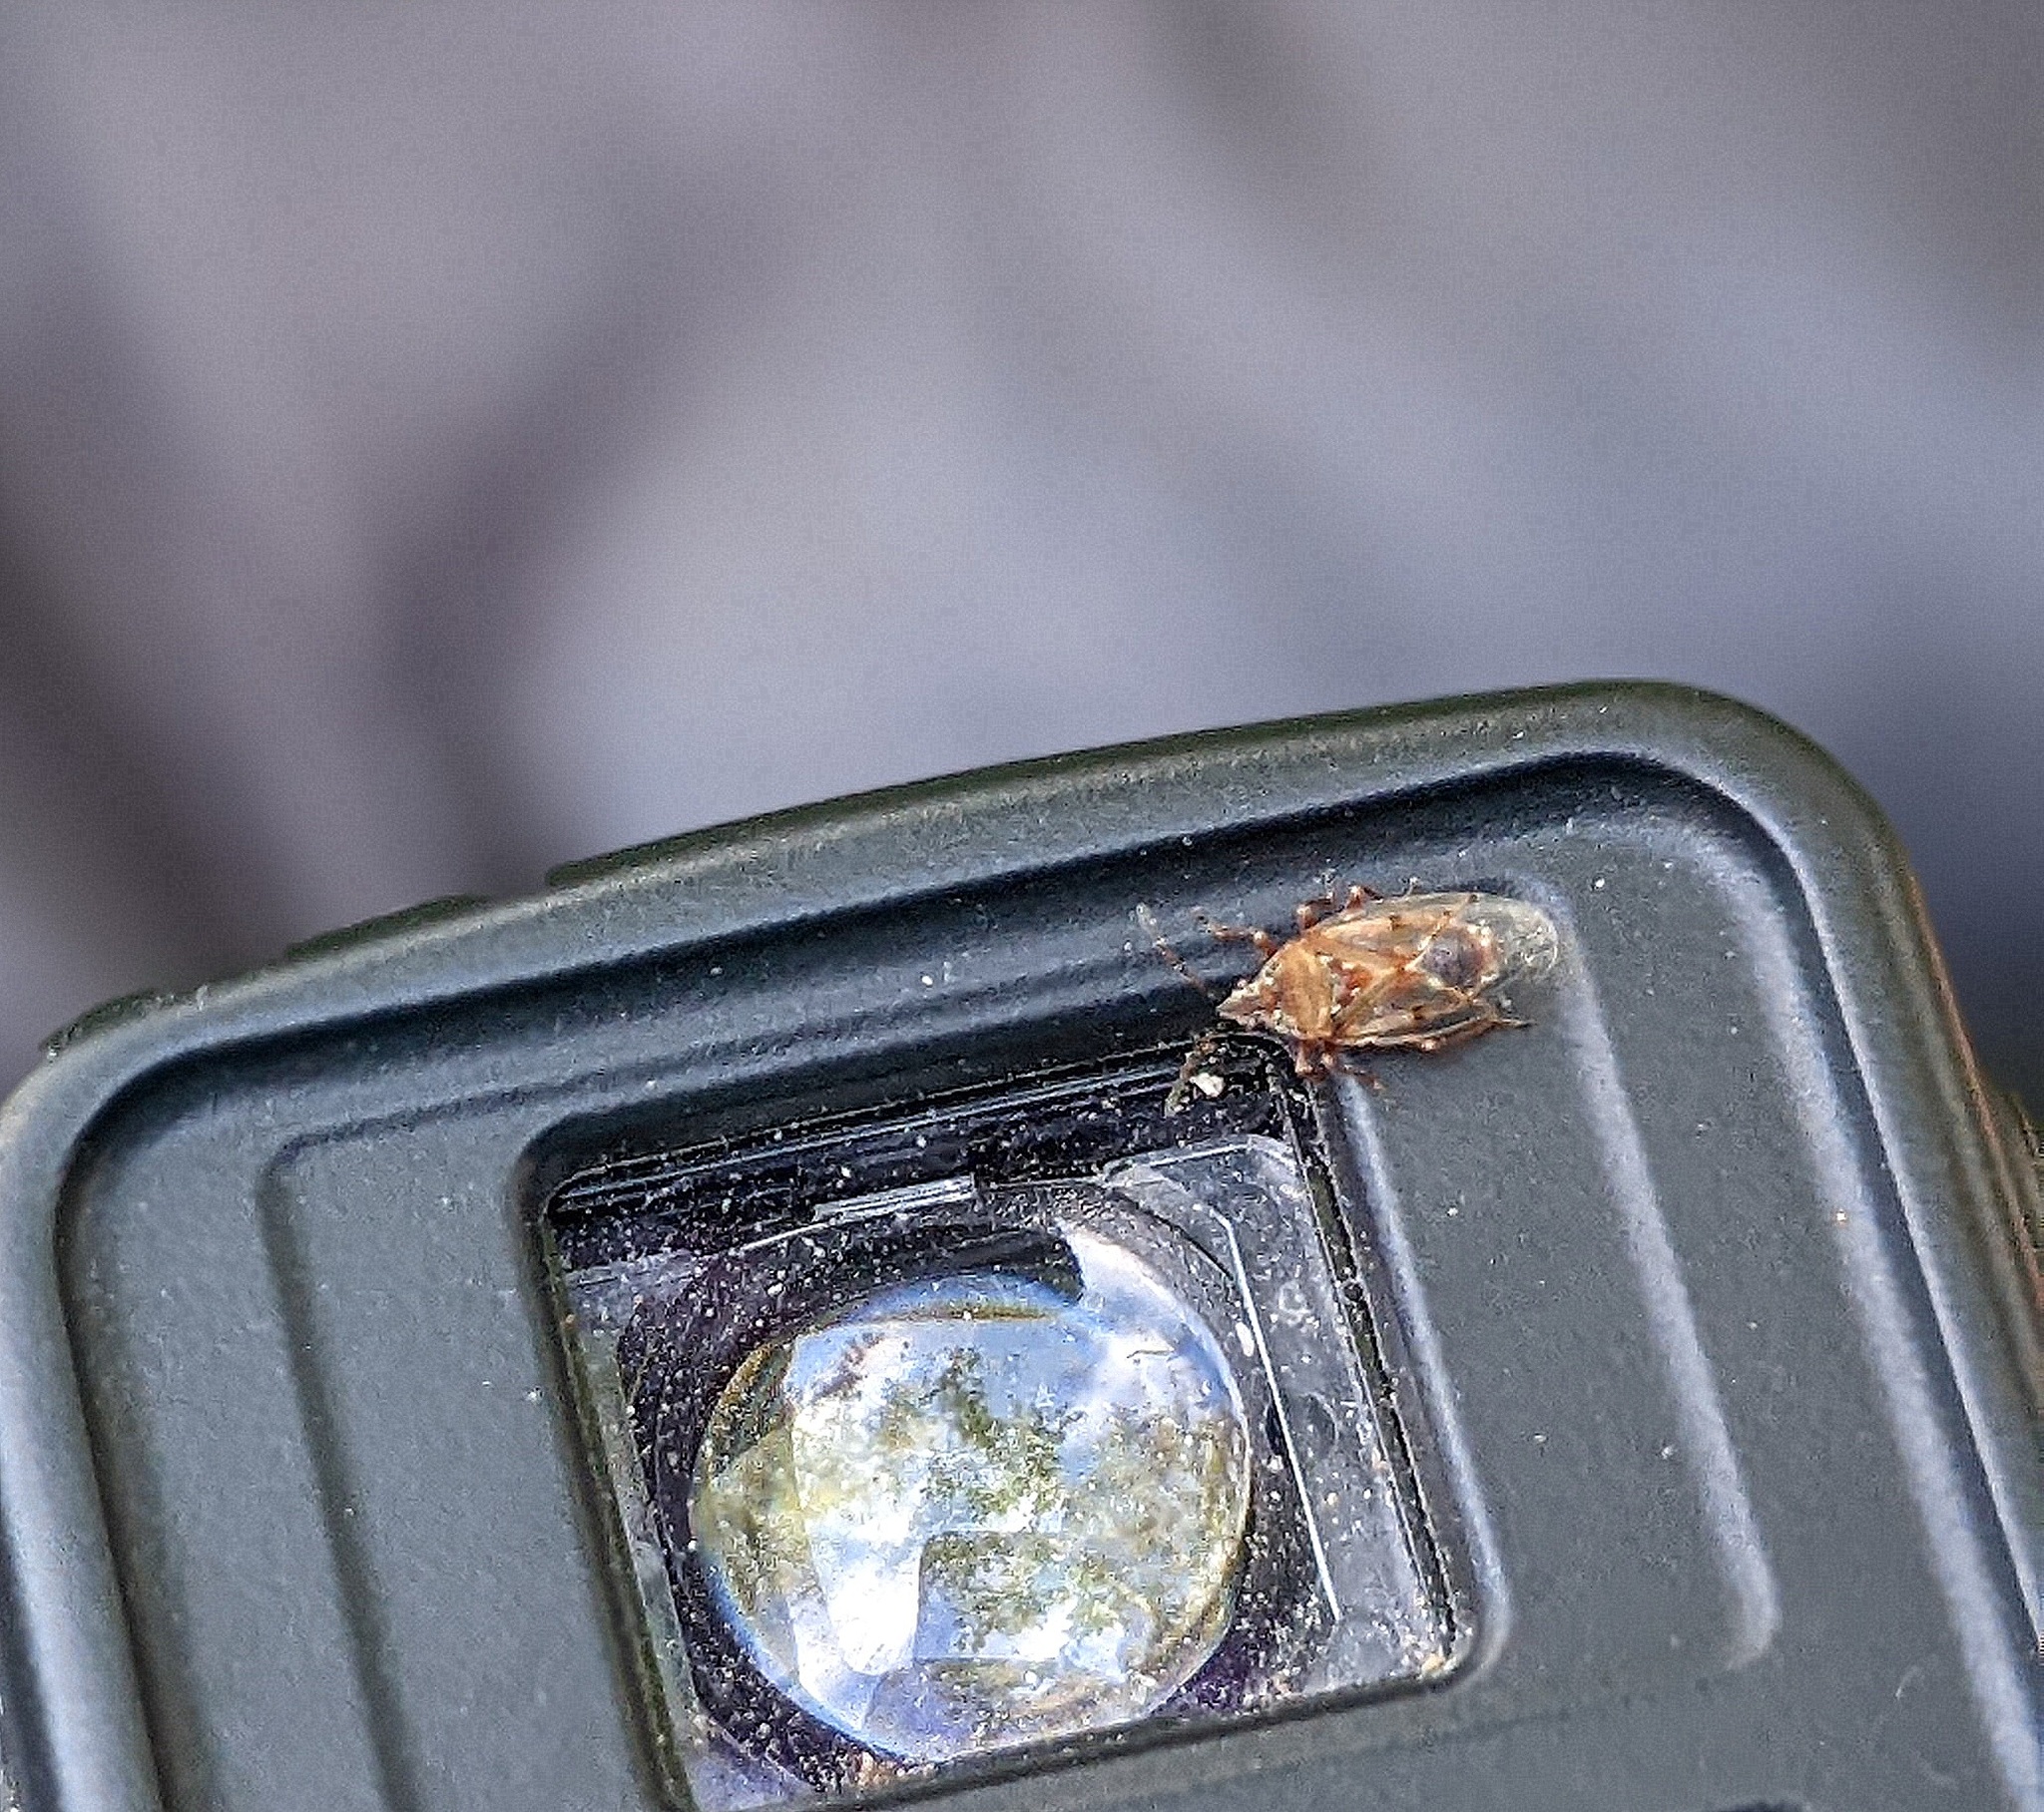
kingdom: Animalia
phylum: Arthropoda
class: Insecta
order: Hemiptera
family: Lygaeidae
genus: Kleidocerys
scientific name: Kleidocerys resedae
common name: Birch catkin bug
